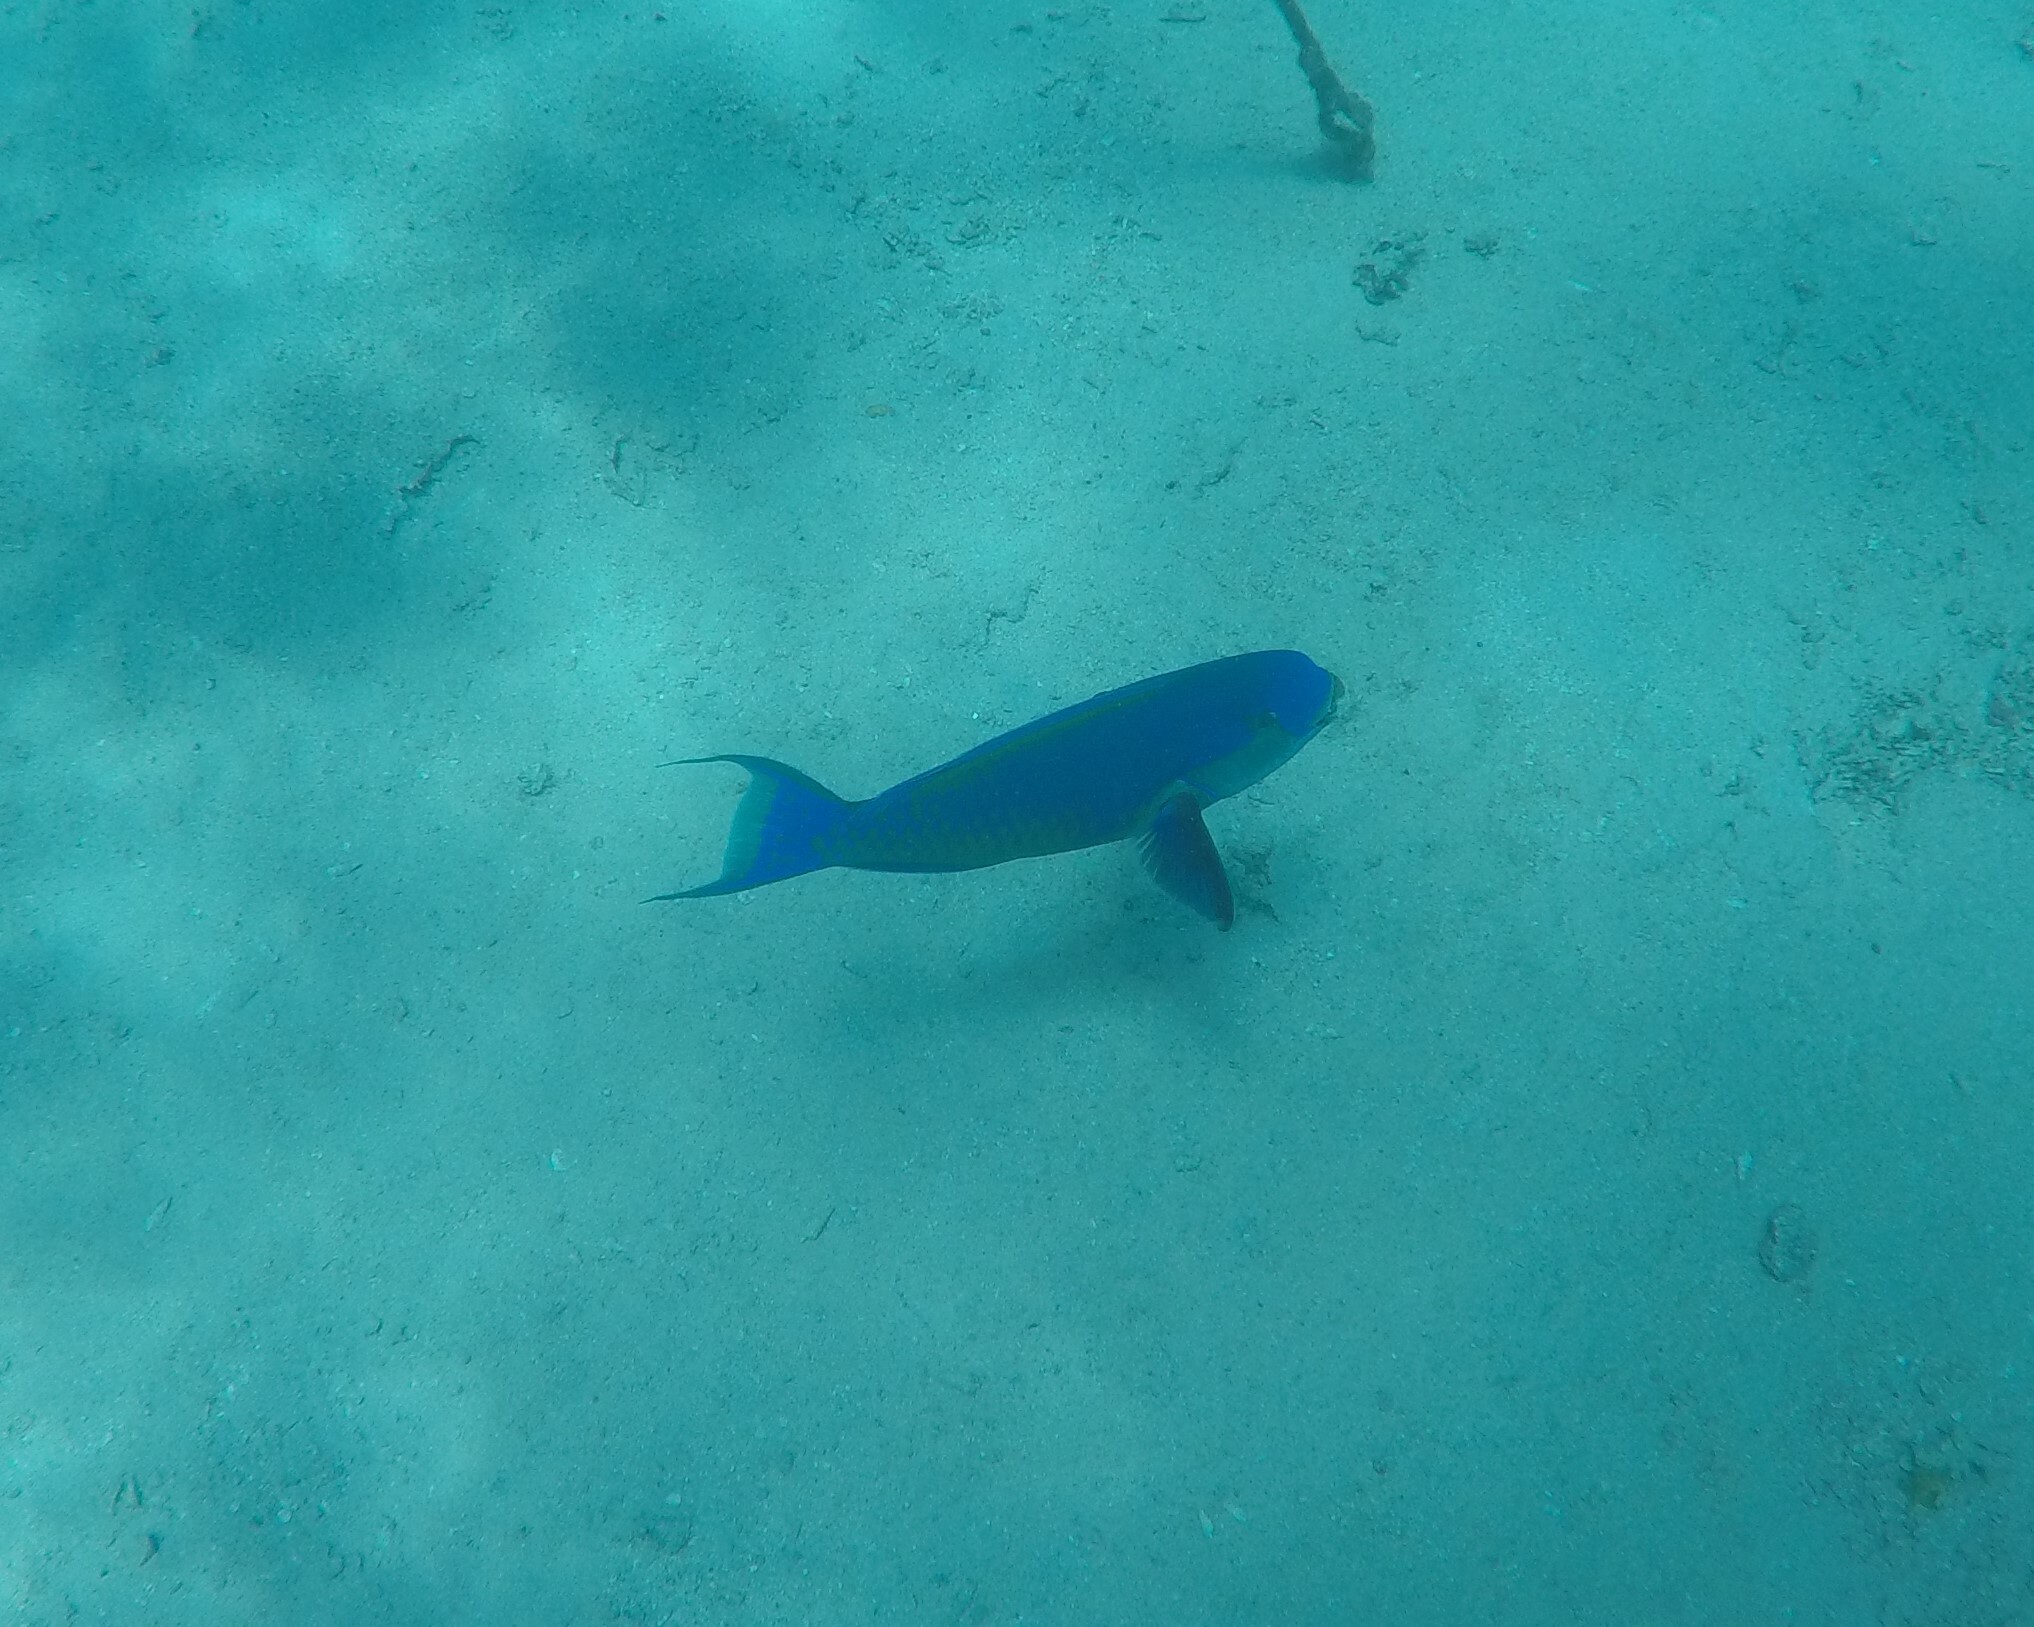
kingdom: Animalia
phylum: Chordata
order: Perciformes
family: Scaridae
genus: Chlorurus
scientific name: Chlorurus gibbus
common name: Heavybeak parrotfish
